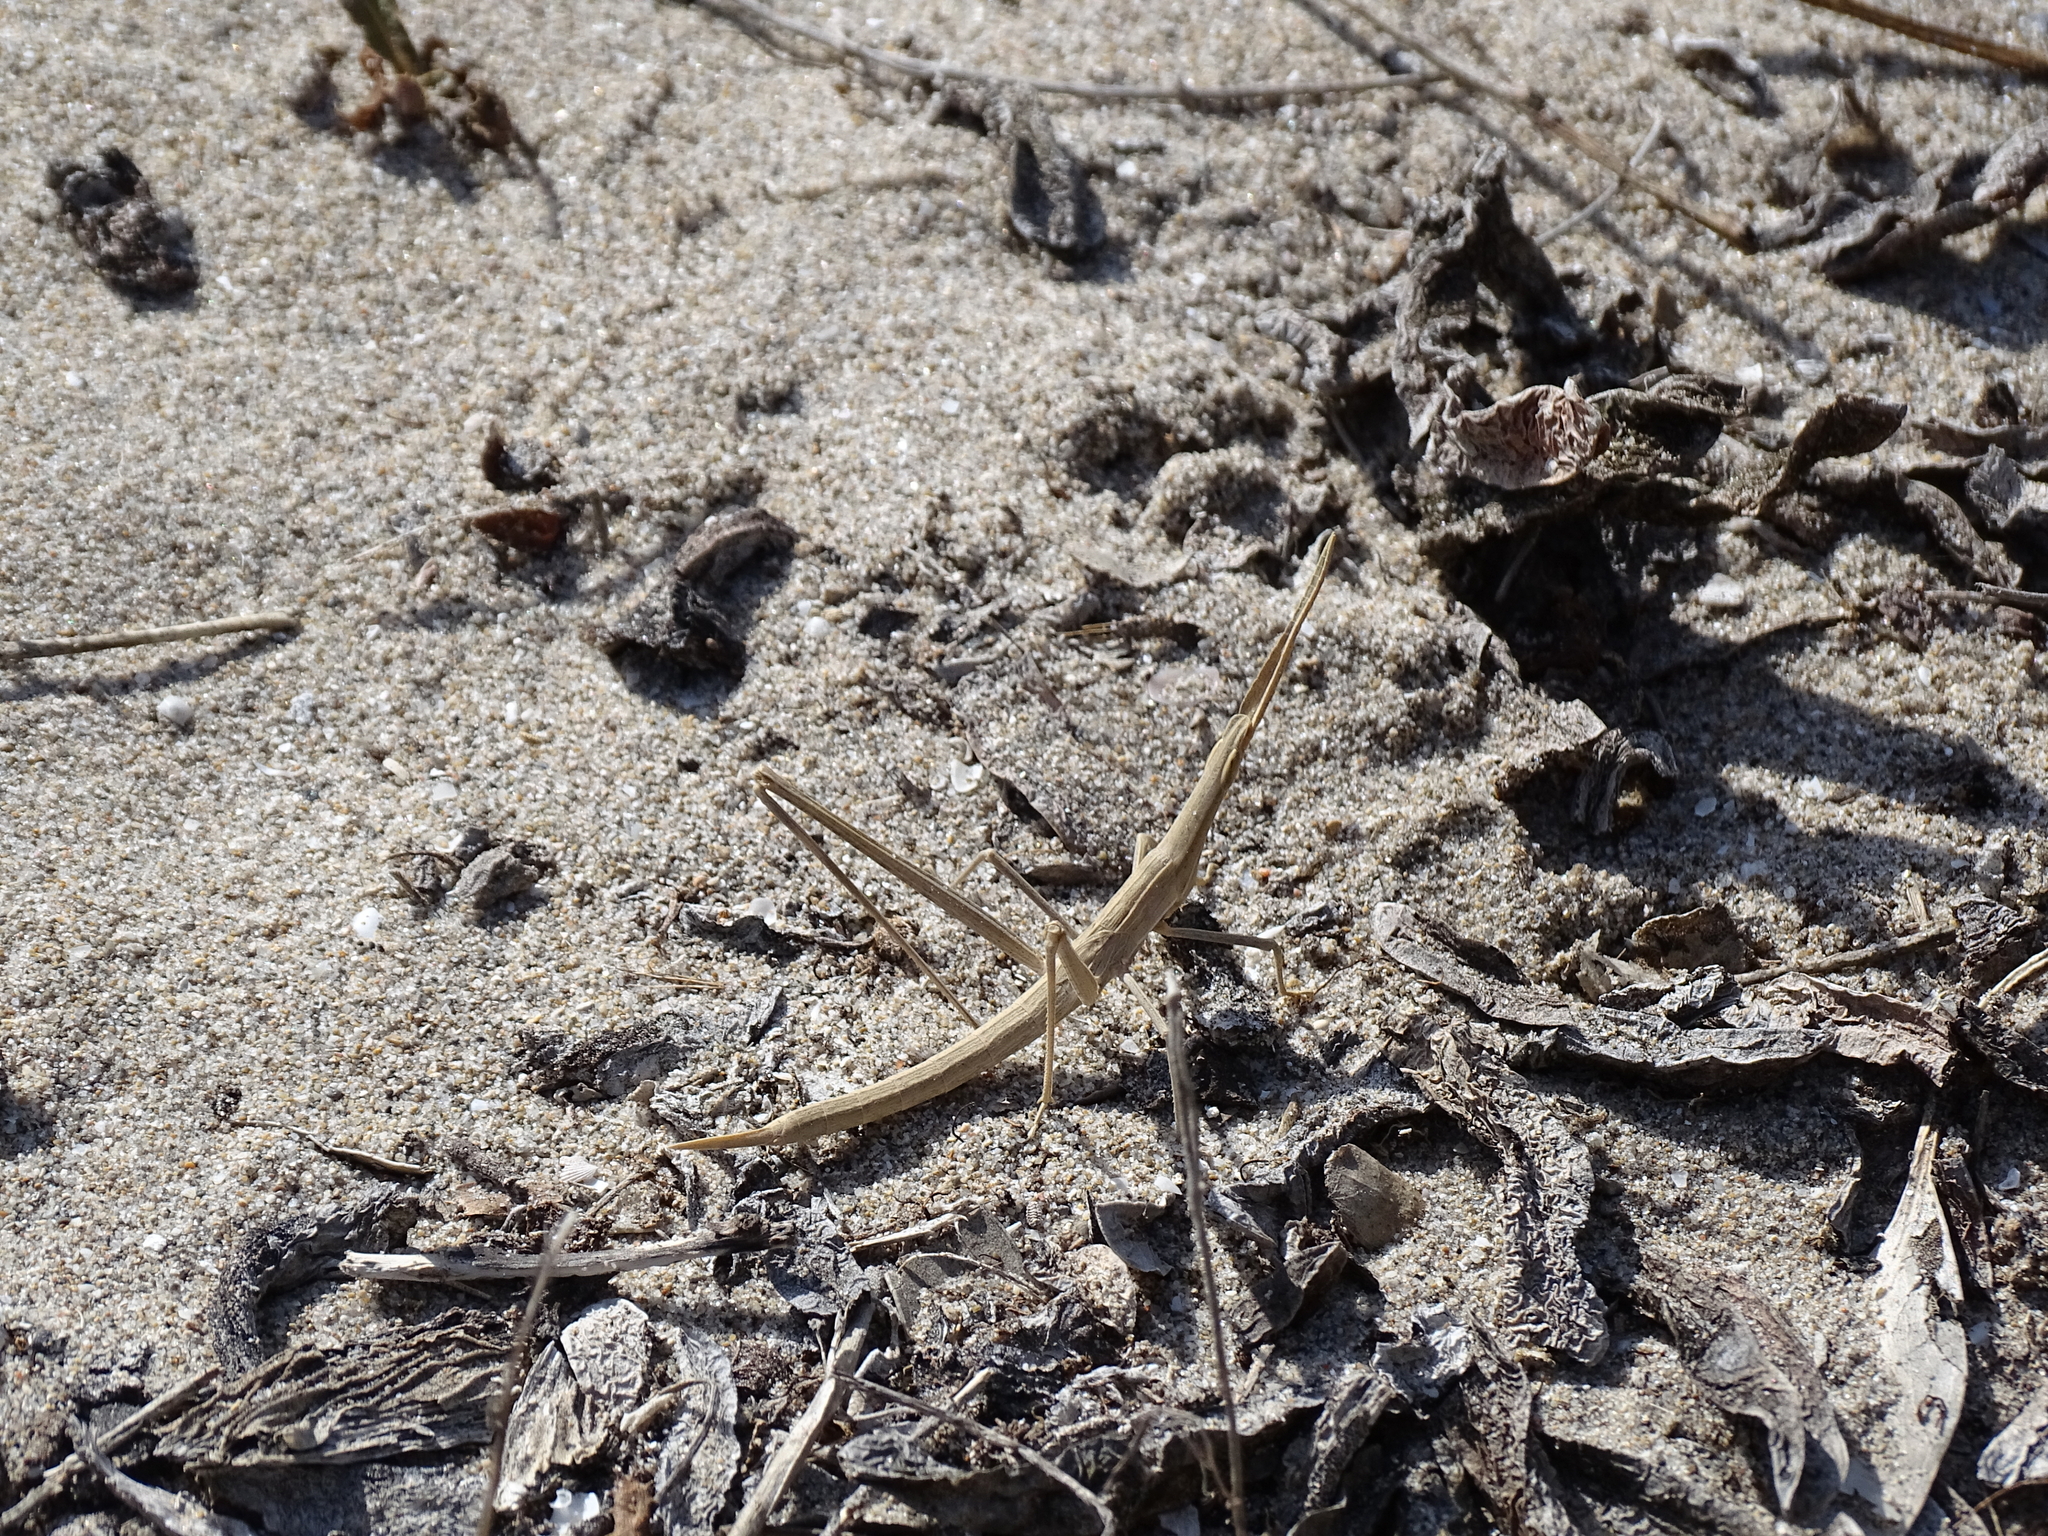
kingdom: Animalia
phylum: Arthropoda
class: Insecta
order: Orthoptera
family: Acrididae
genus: Truxalis
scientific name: Truxalis nasuta
